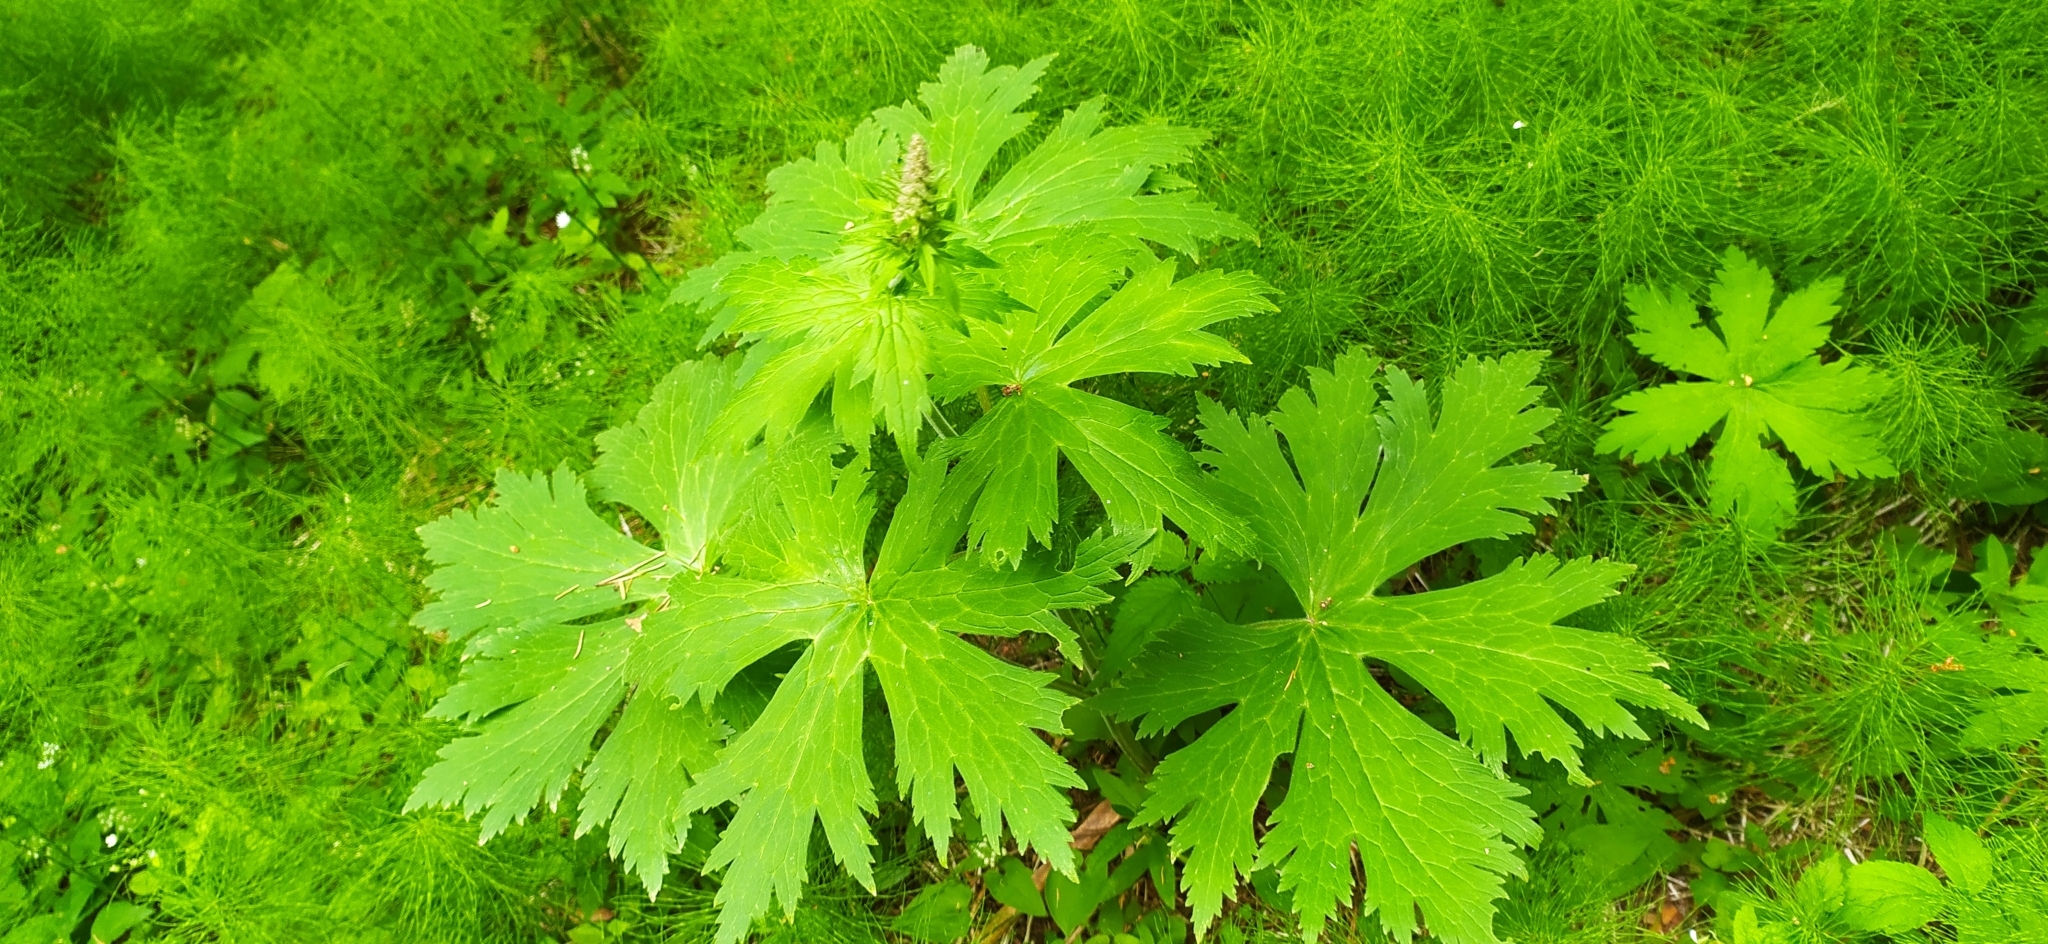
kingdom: Plantae
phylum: Tracheophyta
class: Magnoliopsida
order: Ranunculales
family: Ranunculaceae
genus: Aconitum
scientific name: Aconitum septentrionale
